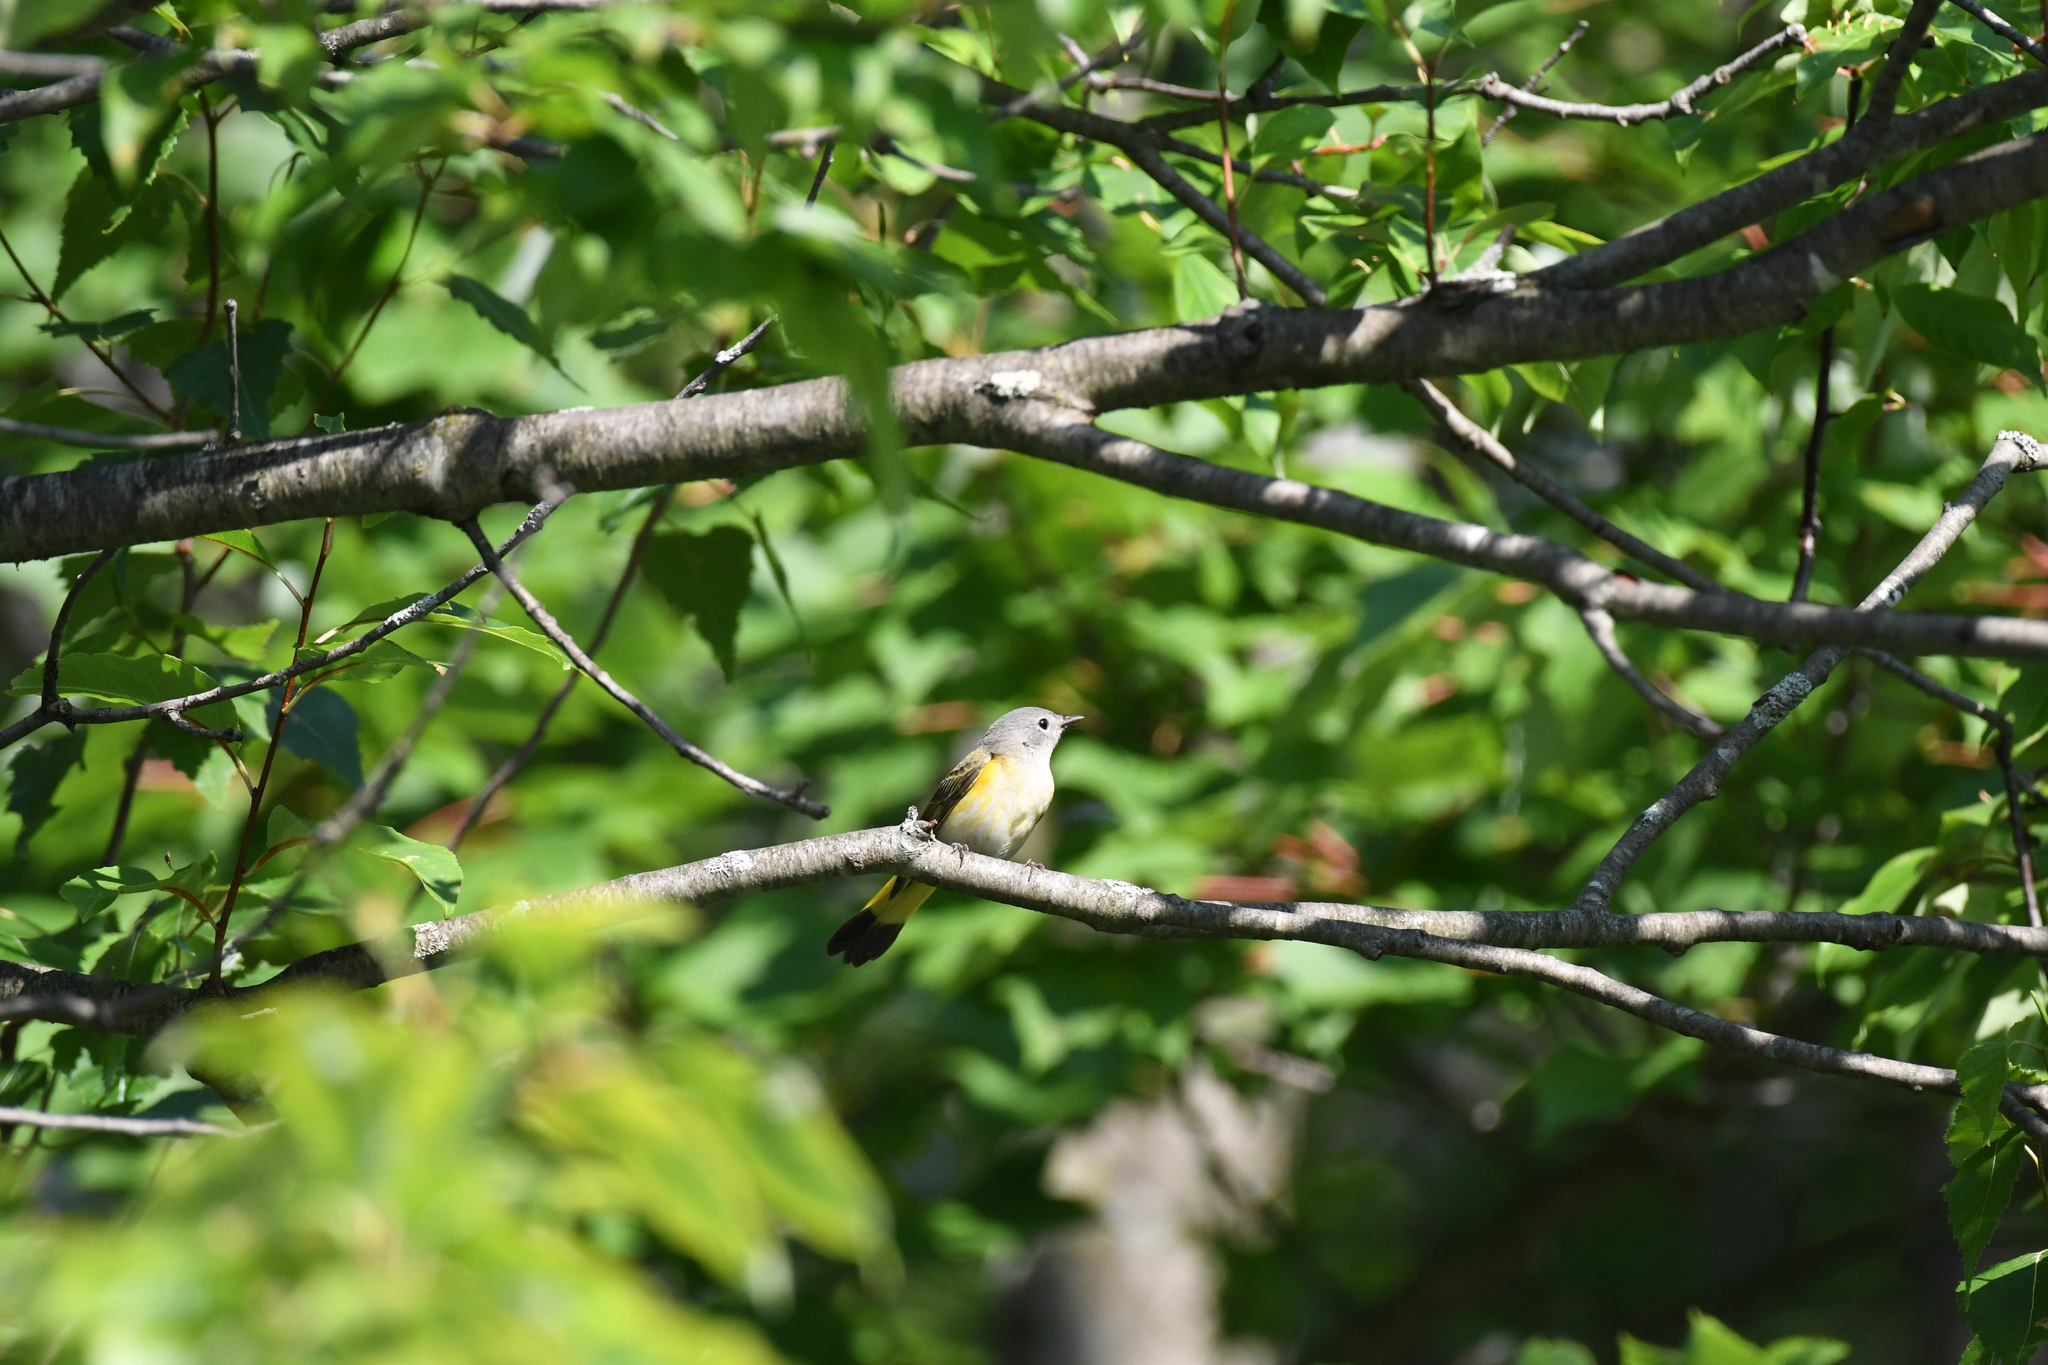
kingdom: Animalia
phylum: Chordata
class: Aves
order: Passeriformes
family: Parulidae
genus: Setophaga
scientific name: Setophaga ruticilla
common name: American redstart
